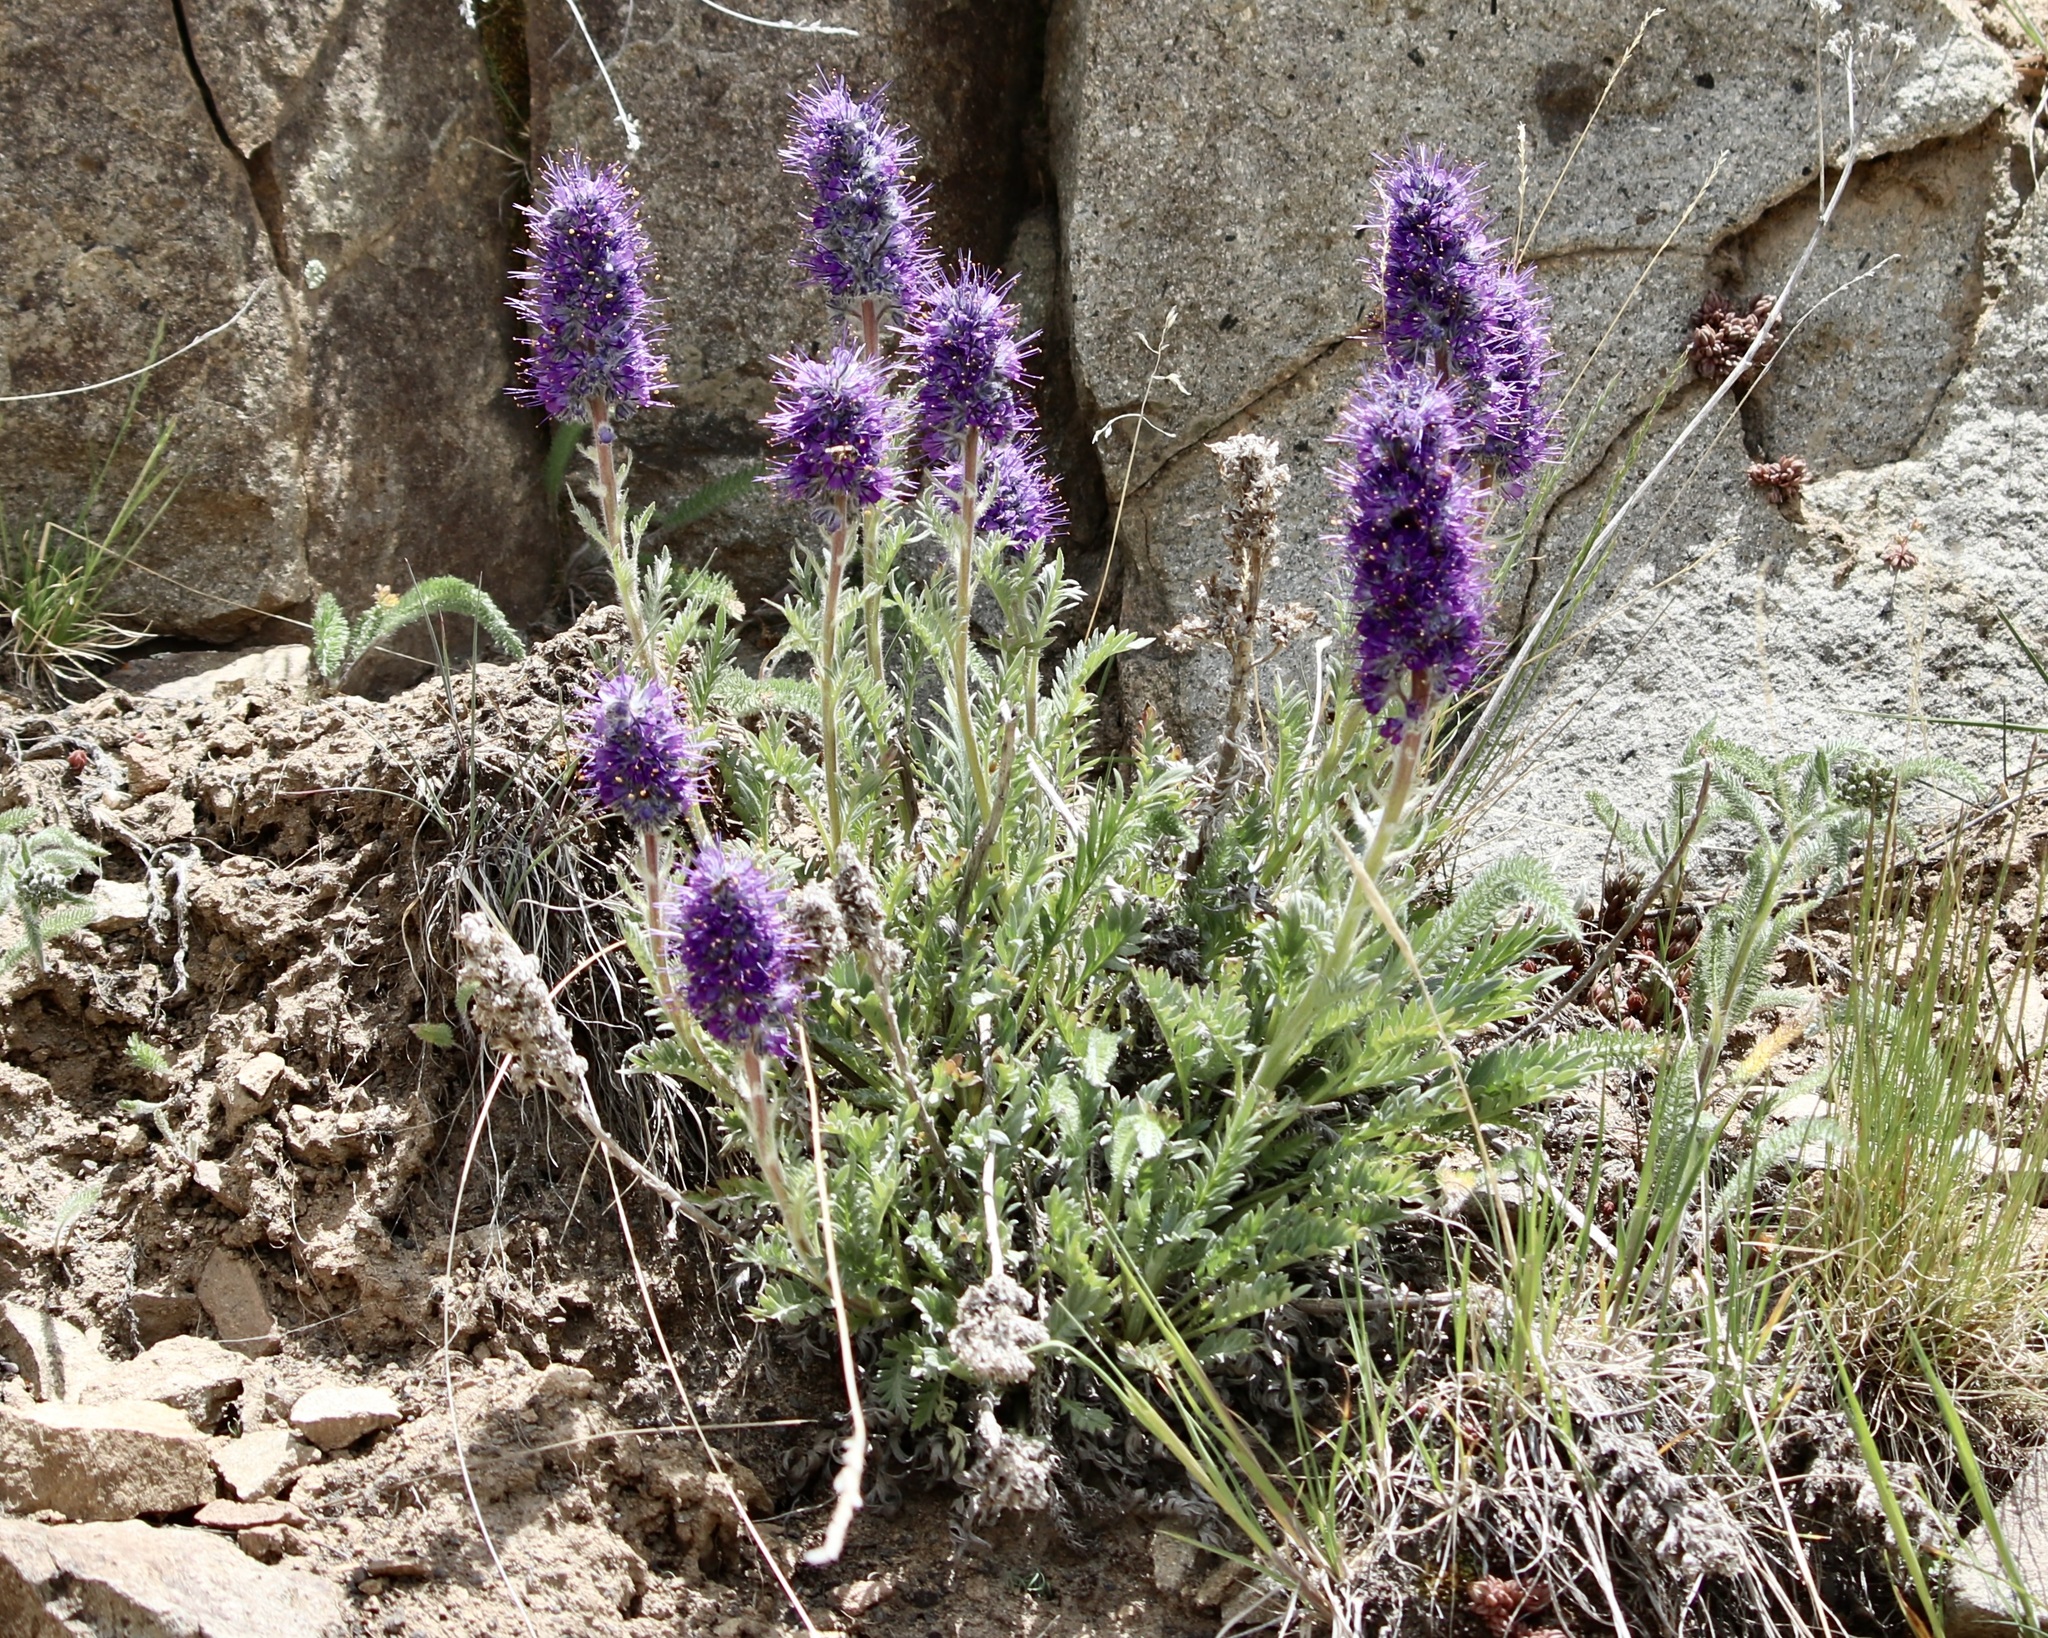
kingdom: Plantae
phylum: Tracheophyta
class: Magnoliopsida
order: Boraginales
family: Hydrophyllaceae
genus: Phacelia
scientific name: Phacelia sericea
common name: Silky phacelia
